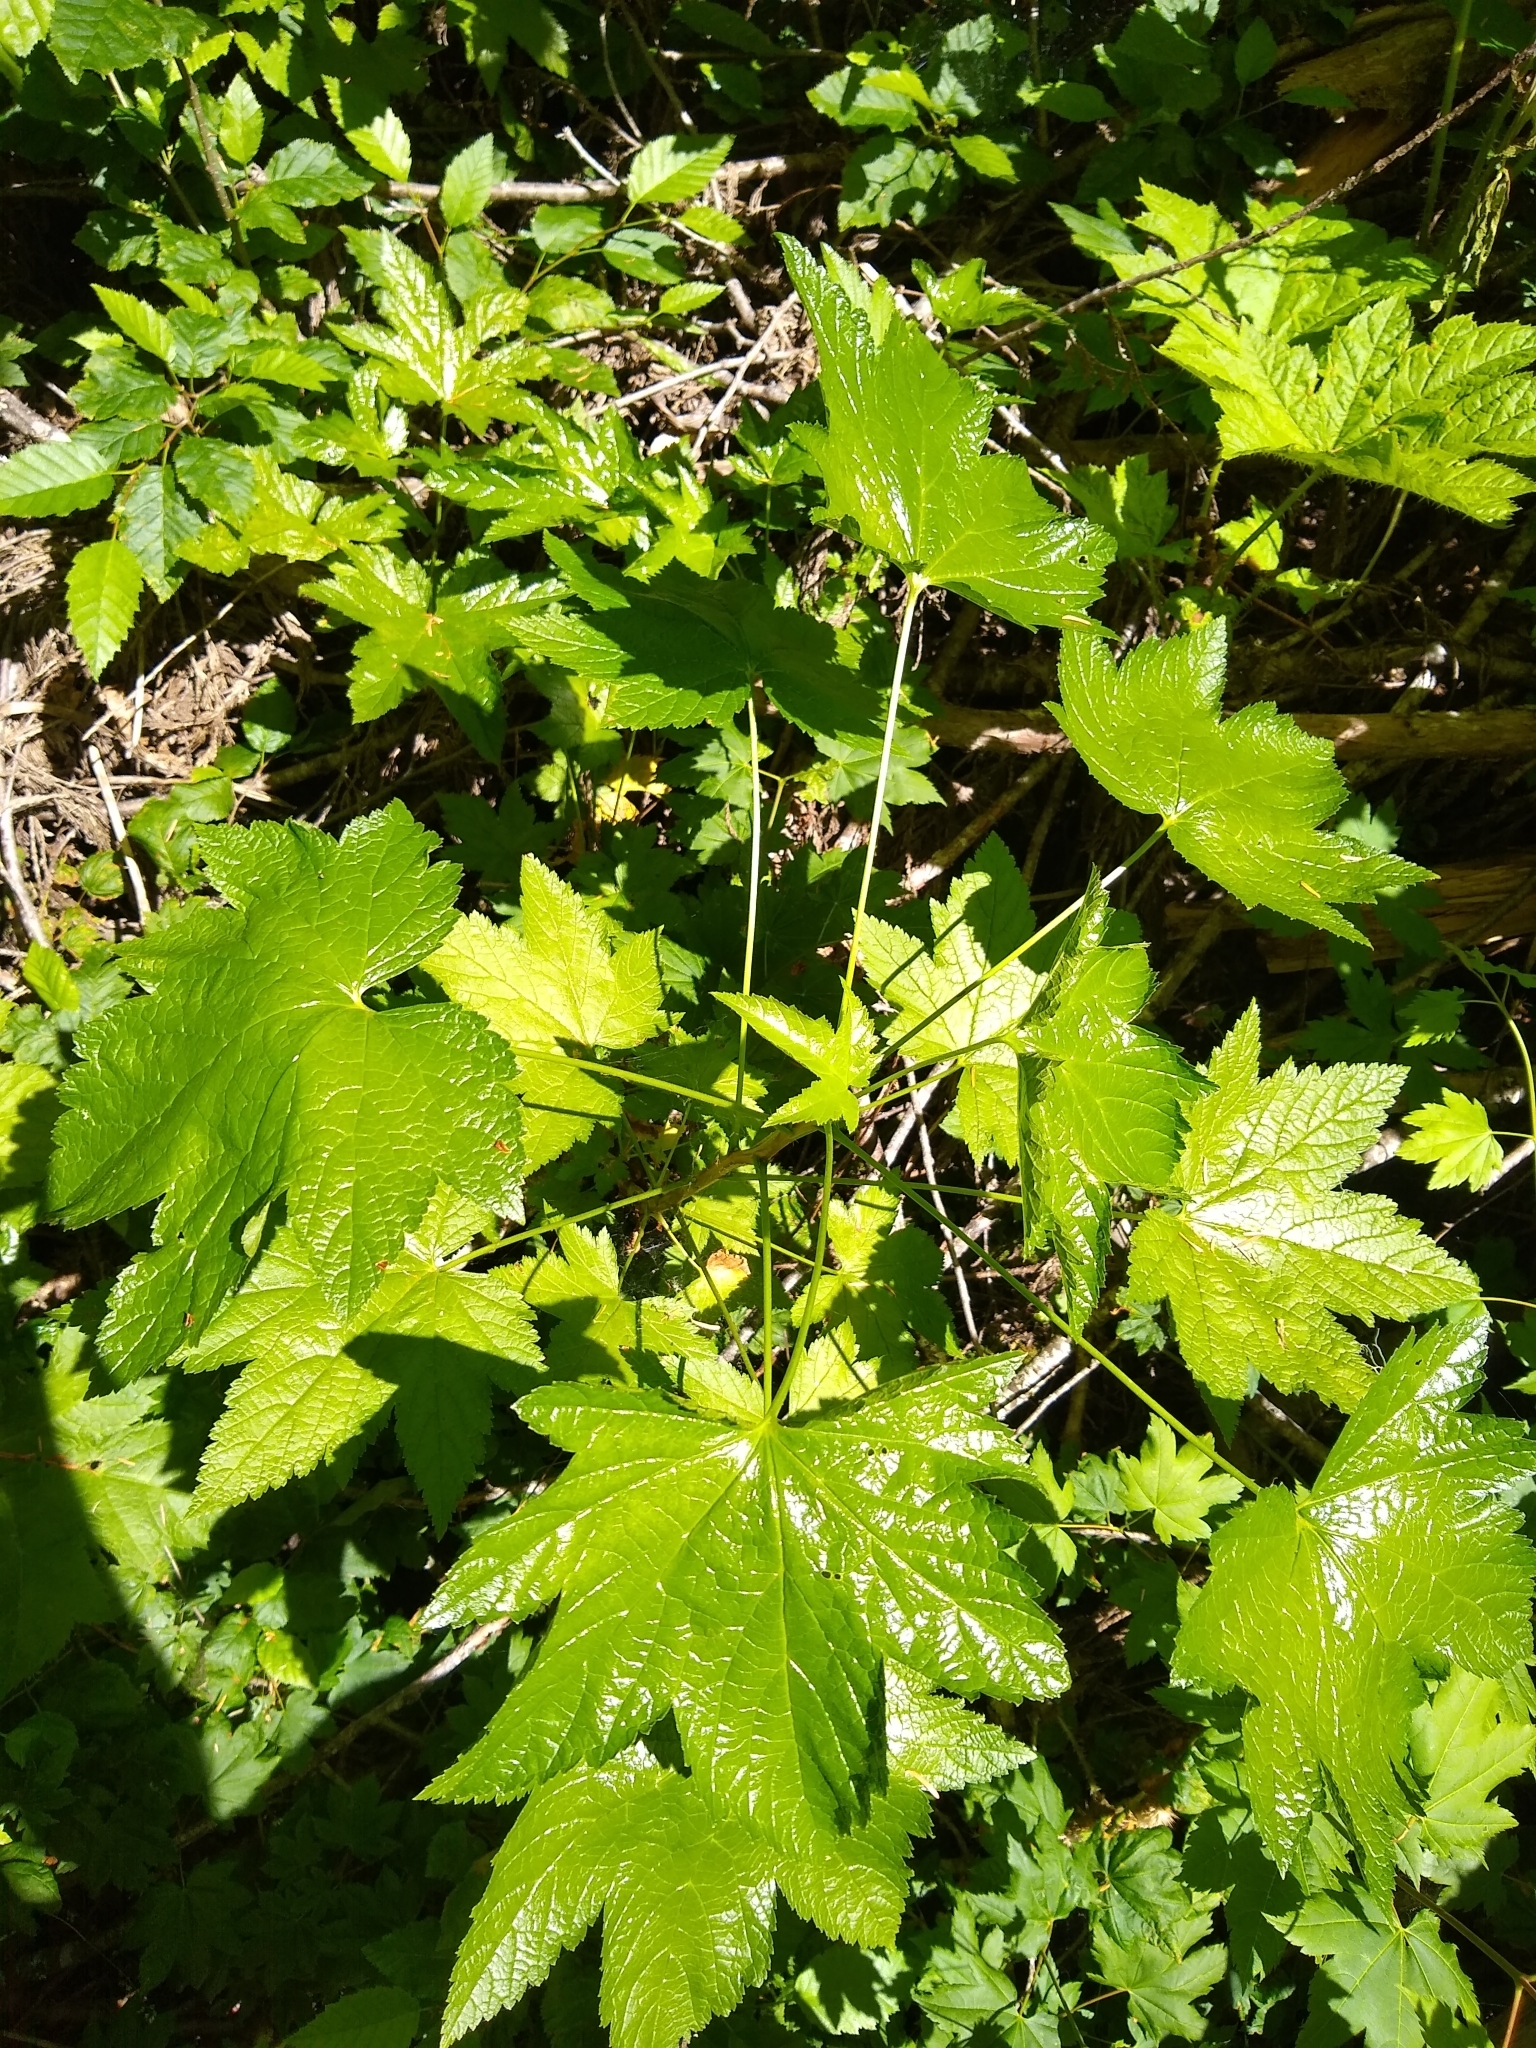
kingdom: Plantae
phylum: Tracheophyta
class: Magnoliopsida
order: Saxifragales
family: Grossulariaceae
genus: Ribes
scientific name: Ribes bracteosum
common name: California black currant
